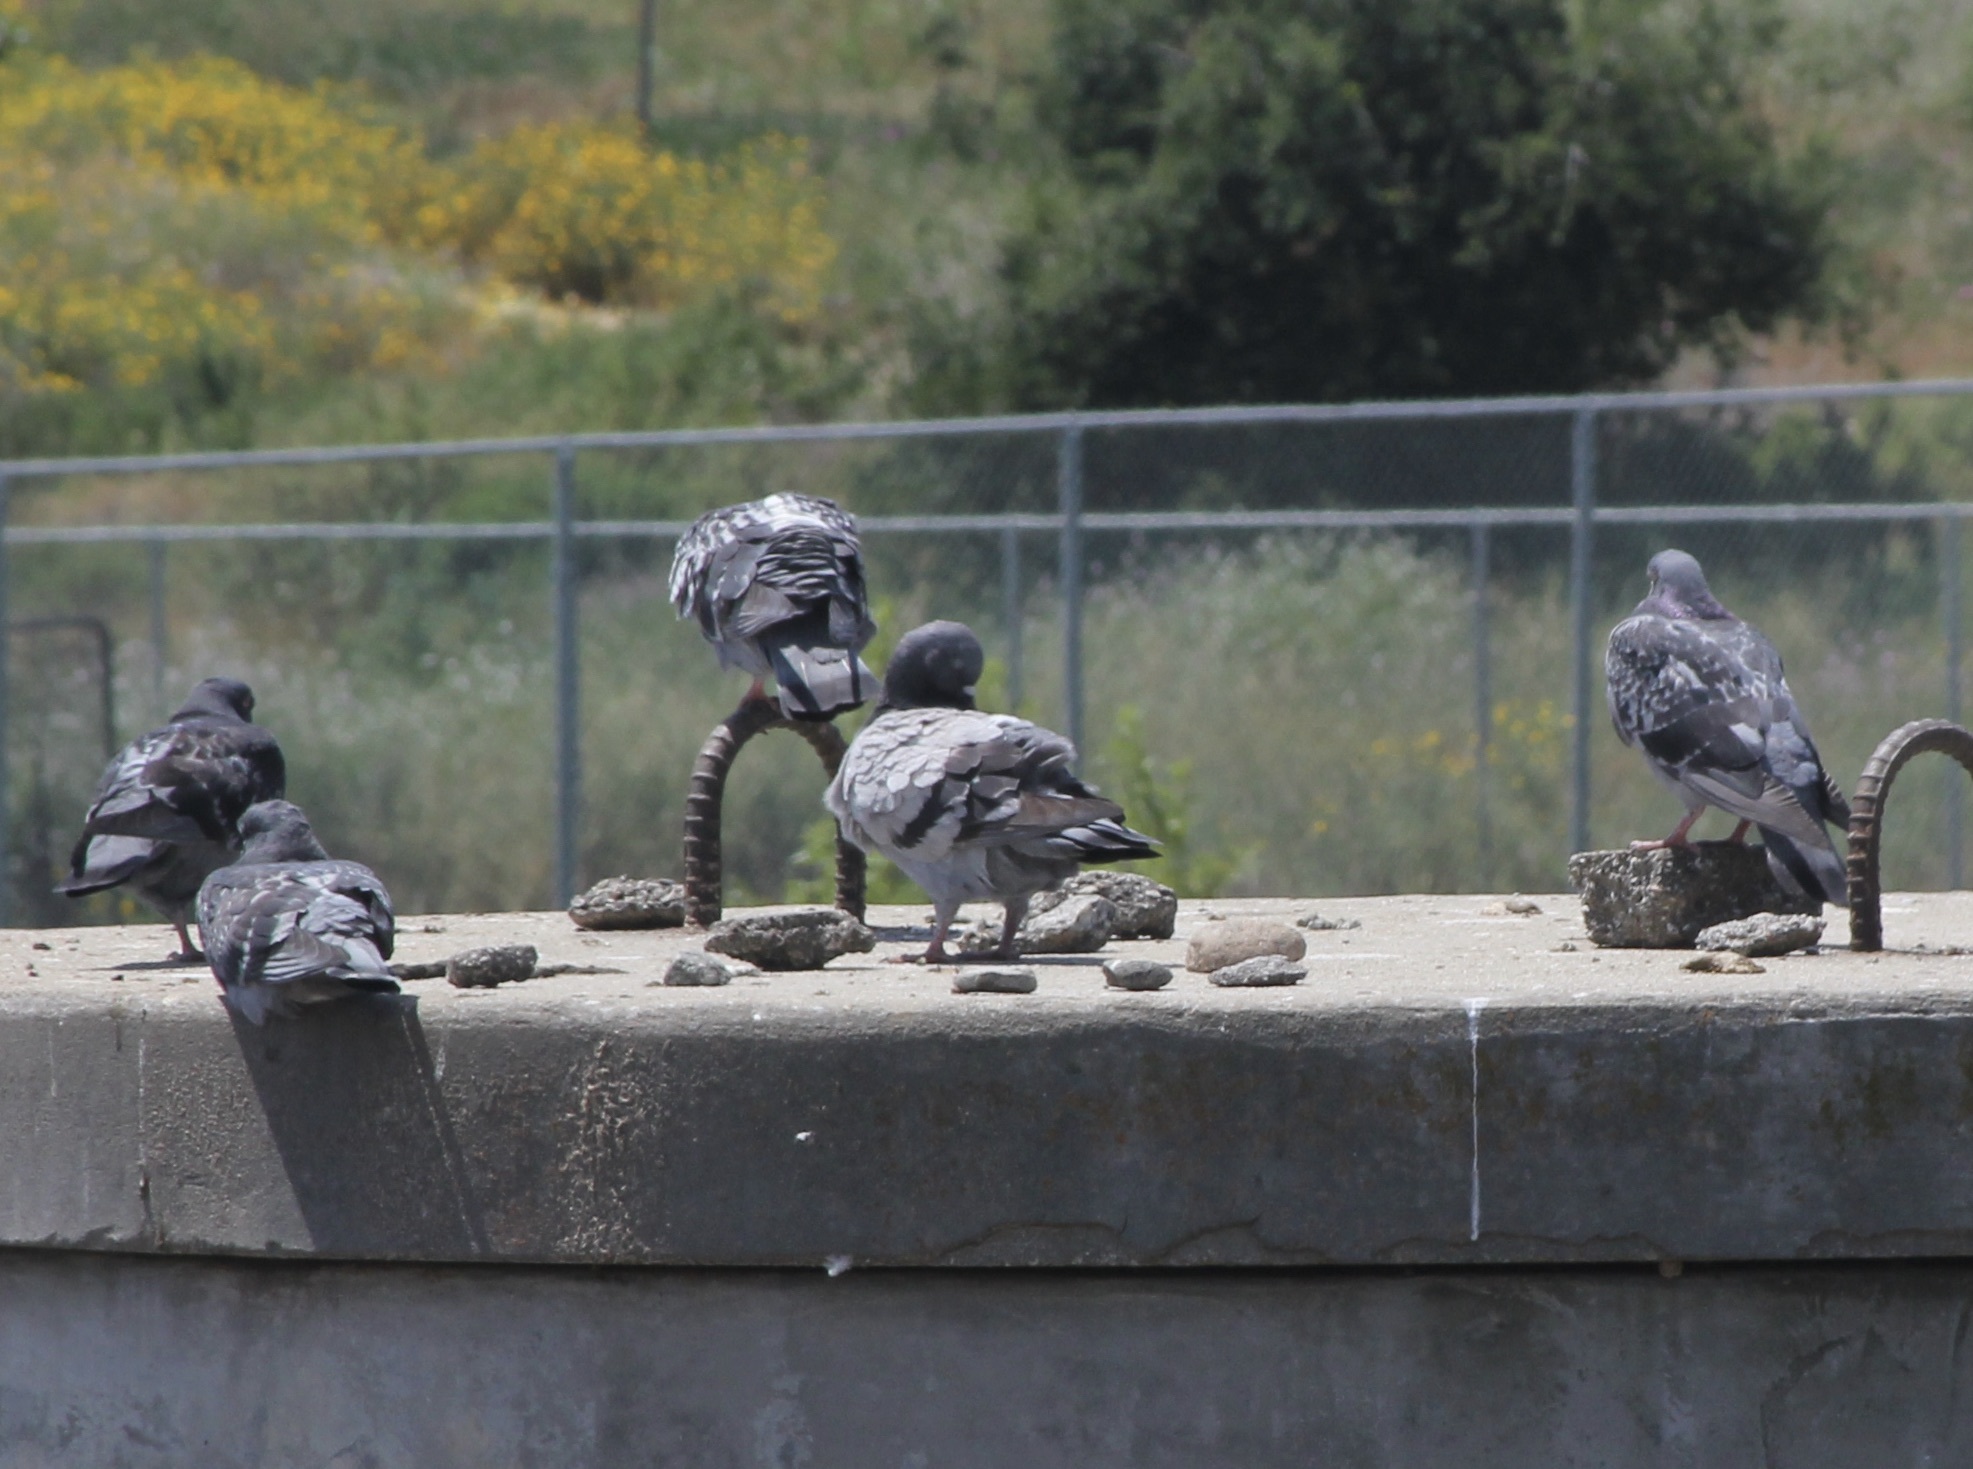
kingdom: Animalia
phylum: Chordata
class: Aves
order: Columbiformes
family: Columbidae
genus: Columba
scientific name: Columba livia
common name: Rock pigeon
